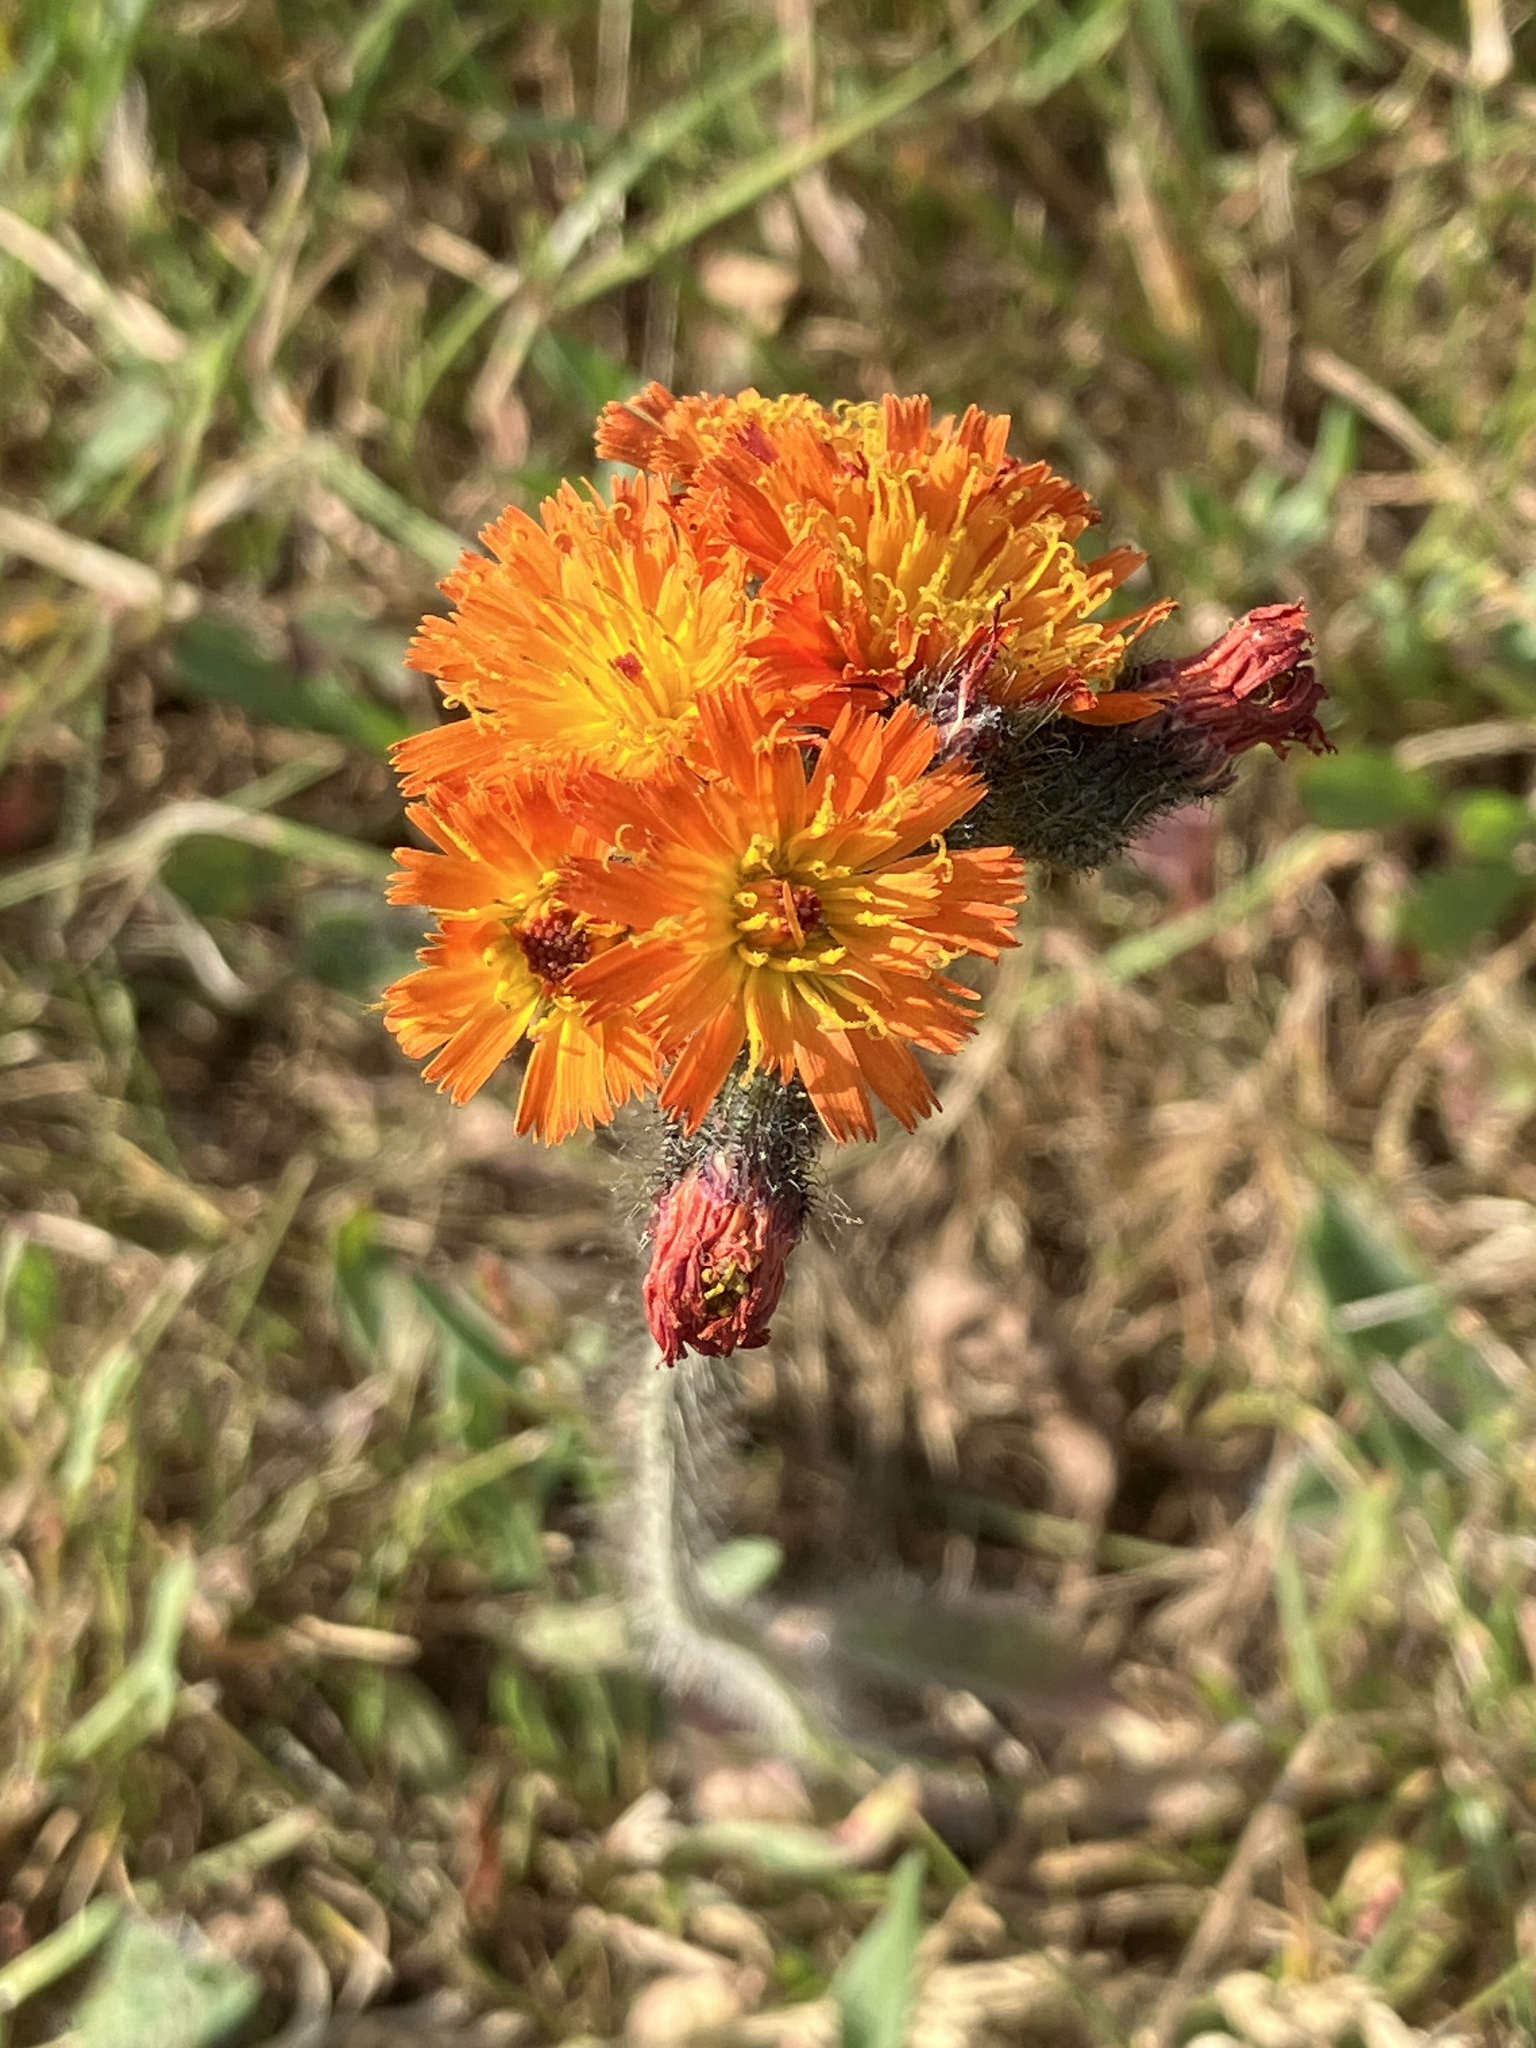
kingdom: Plantae
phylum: Tracheophyta
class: Magnoliopsida
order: Asterales
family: Asteraceae
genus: Pilosella
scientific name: Pilosella aurantiaca
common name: Fox-and-cubs
